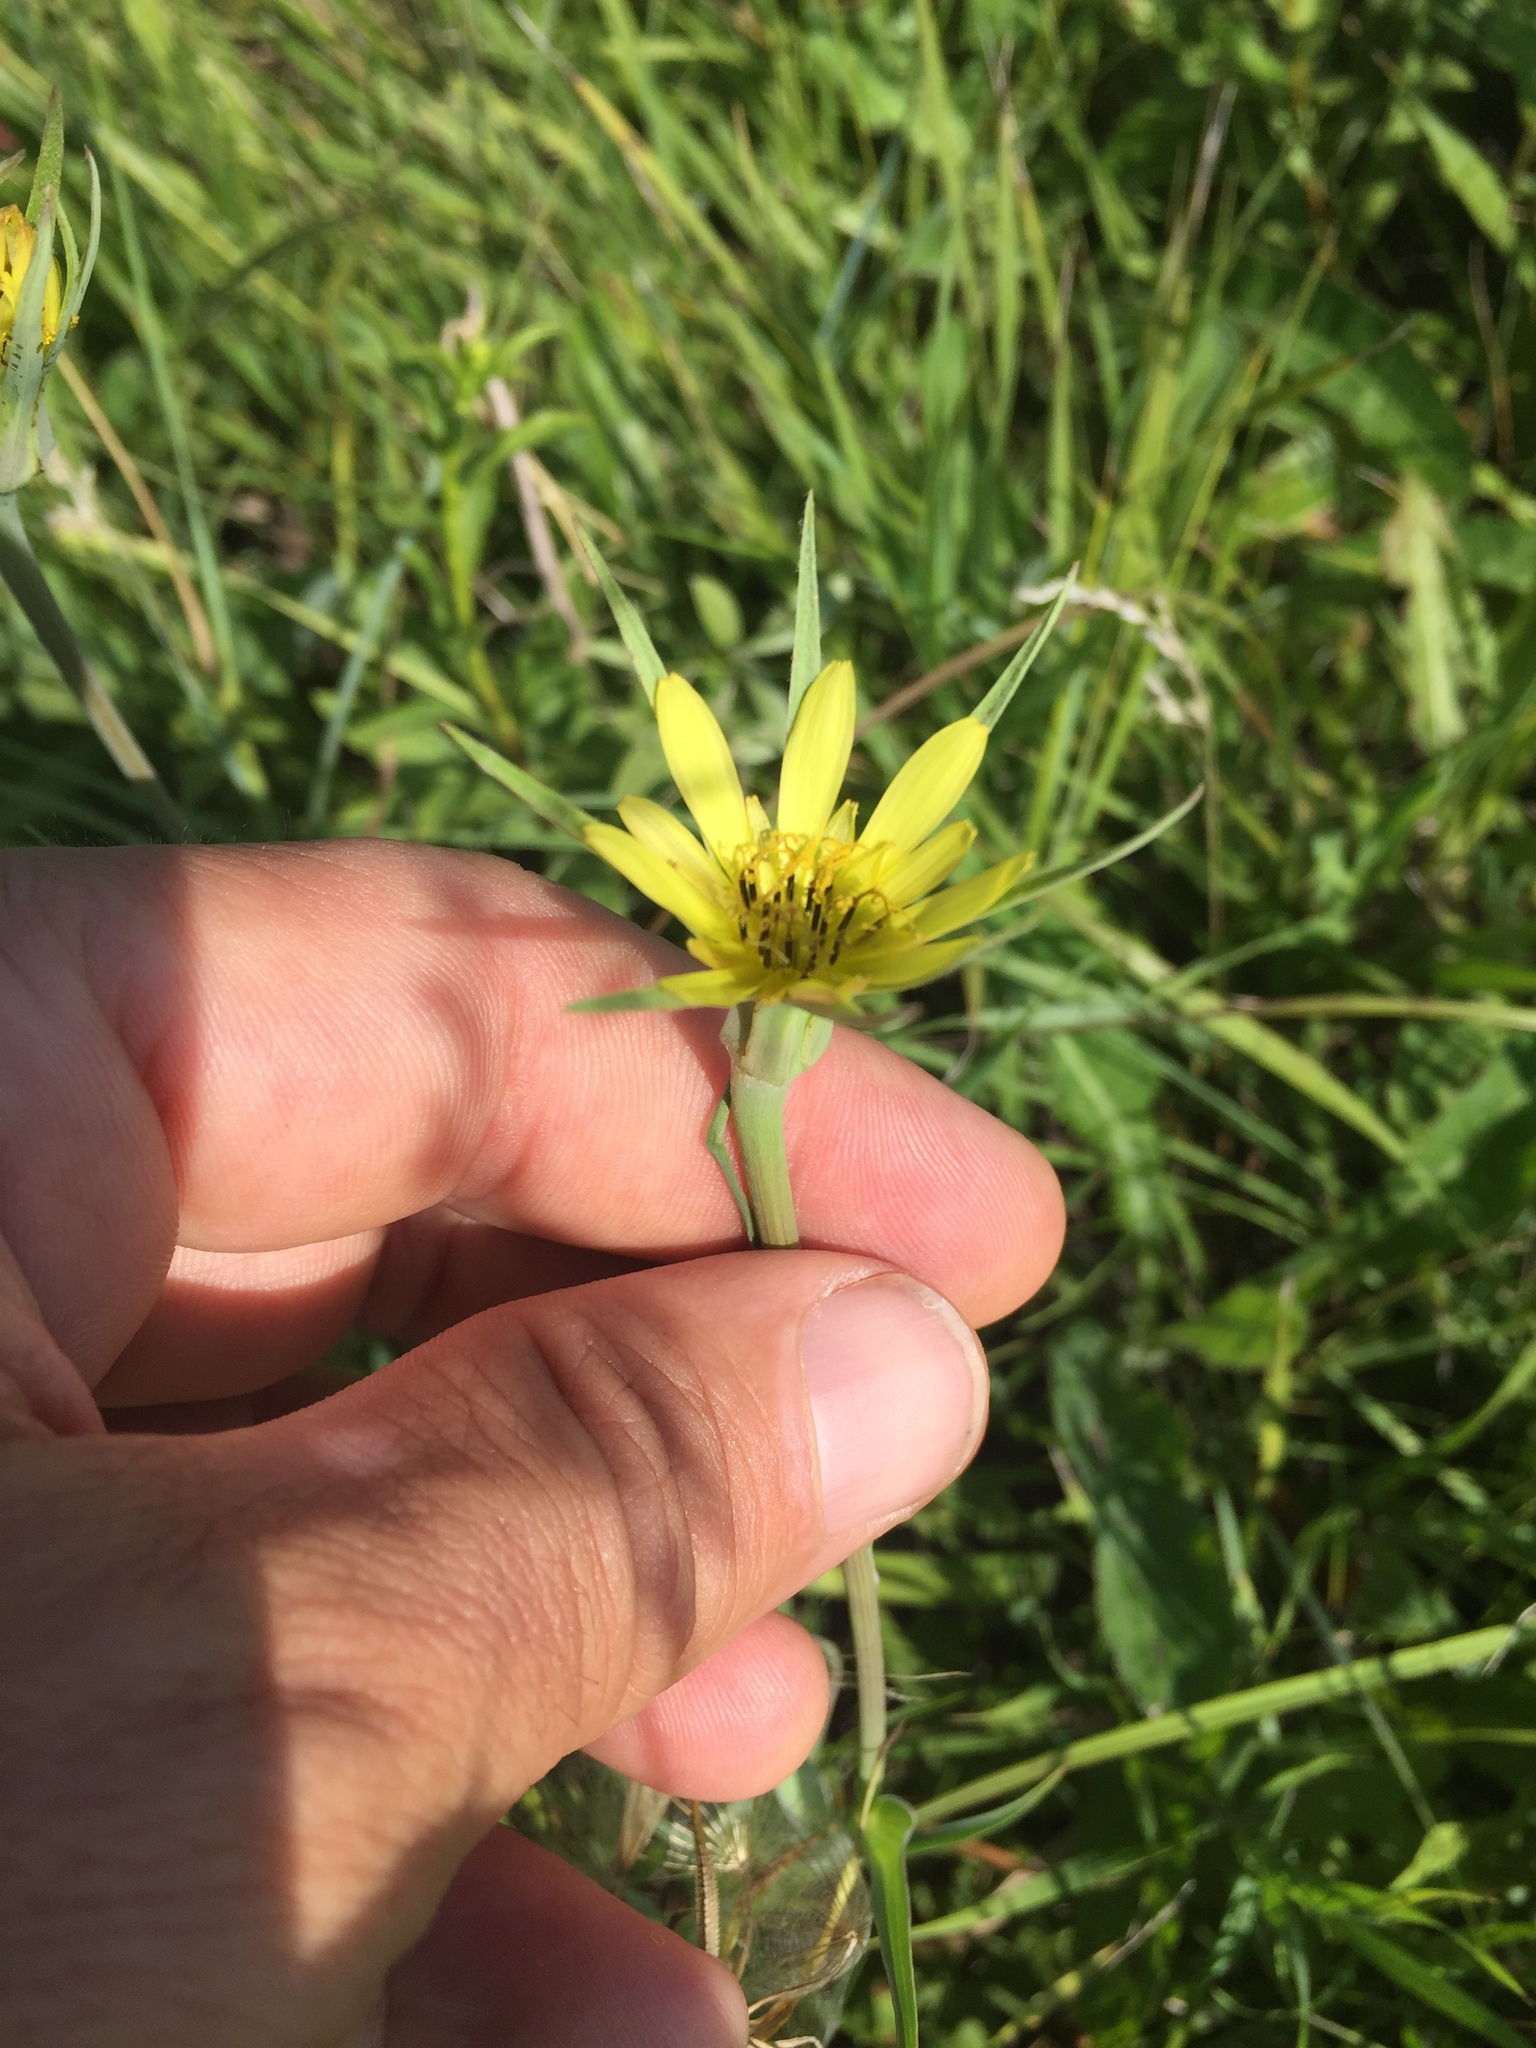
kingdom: Plantae
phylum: Tracheophyta
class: Magnoliopsida
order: Asterales
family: Asteraceae
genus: Tragopogon
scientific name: Tragopogon dubius
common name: Yellow salsify
